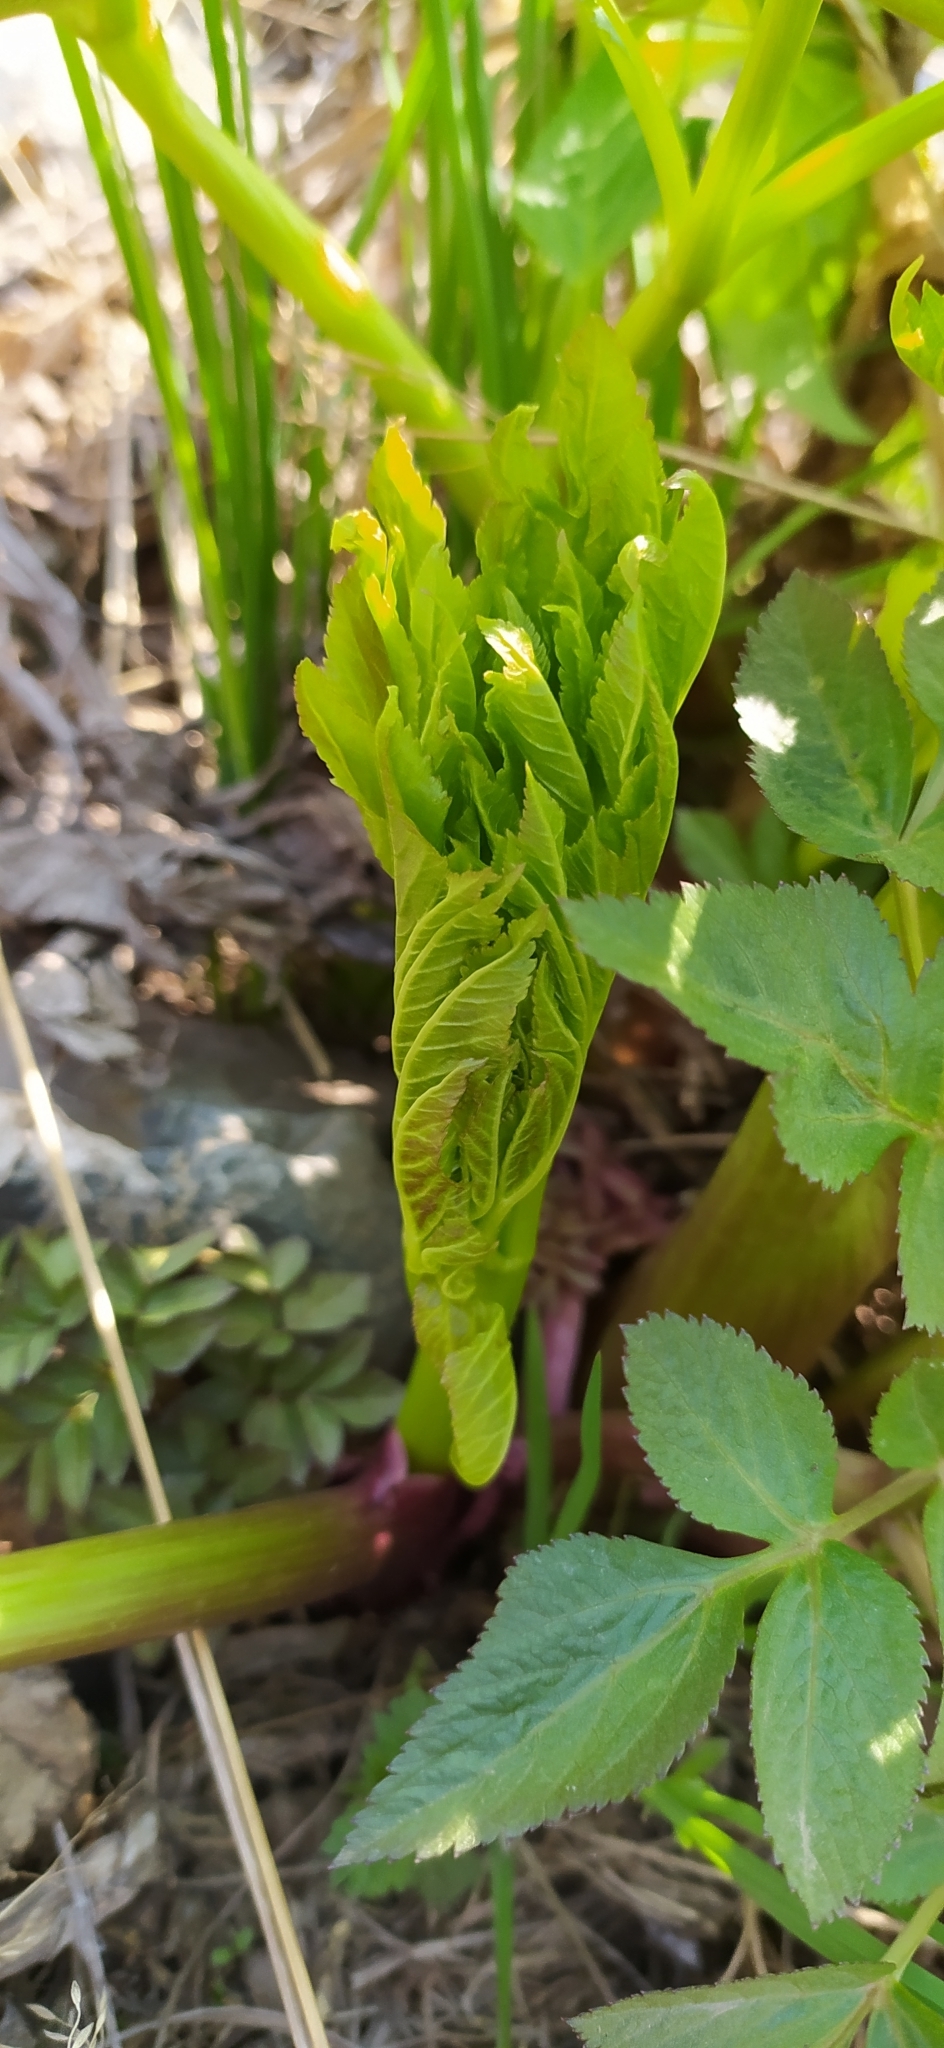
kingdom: Plantae
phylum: Tracheophyta
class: Magnoliopsida
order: Apiales
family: Apiaceae
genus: Angelica
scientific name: Angelica archangelica
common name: Garden angelica
